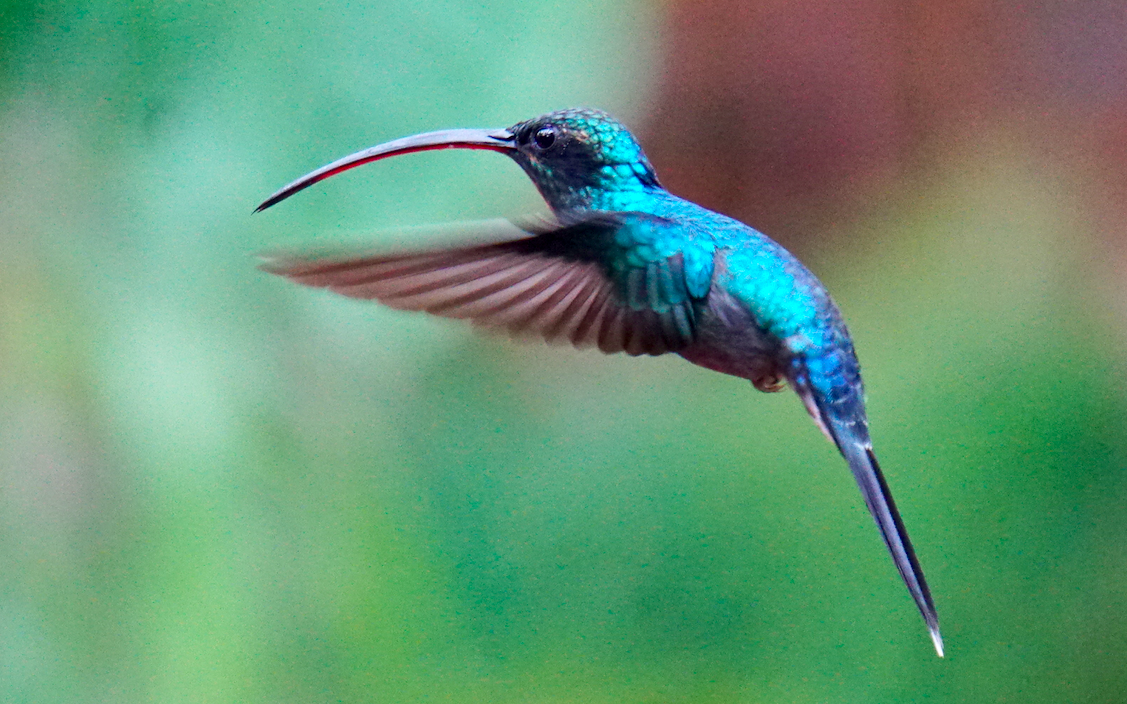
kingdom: Animalia
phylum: Chordata
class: Aves
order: Apodiformes
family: Trochilidae
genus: Phaethornis
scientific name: Phaethornis guy
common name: Green hermit
